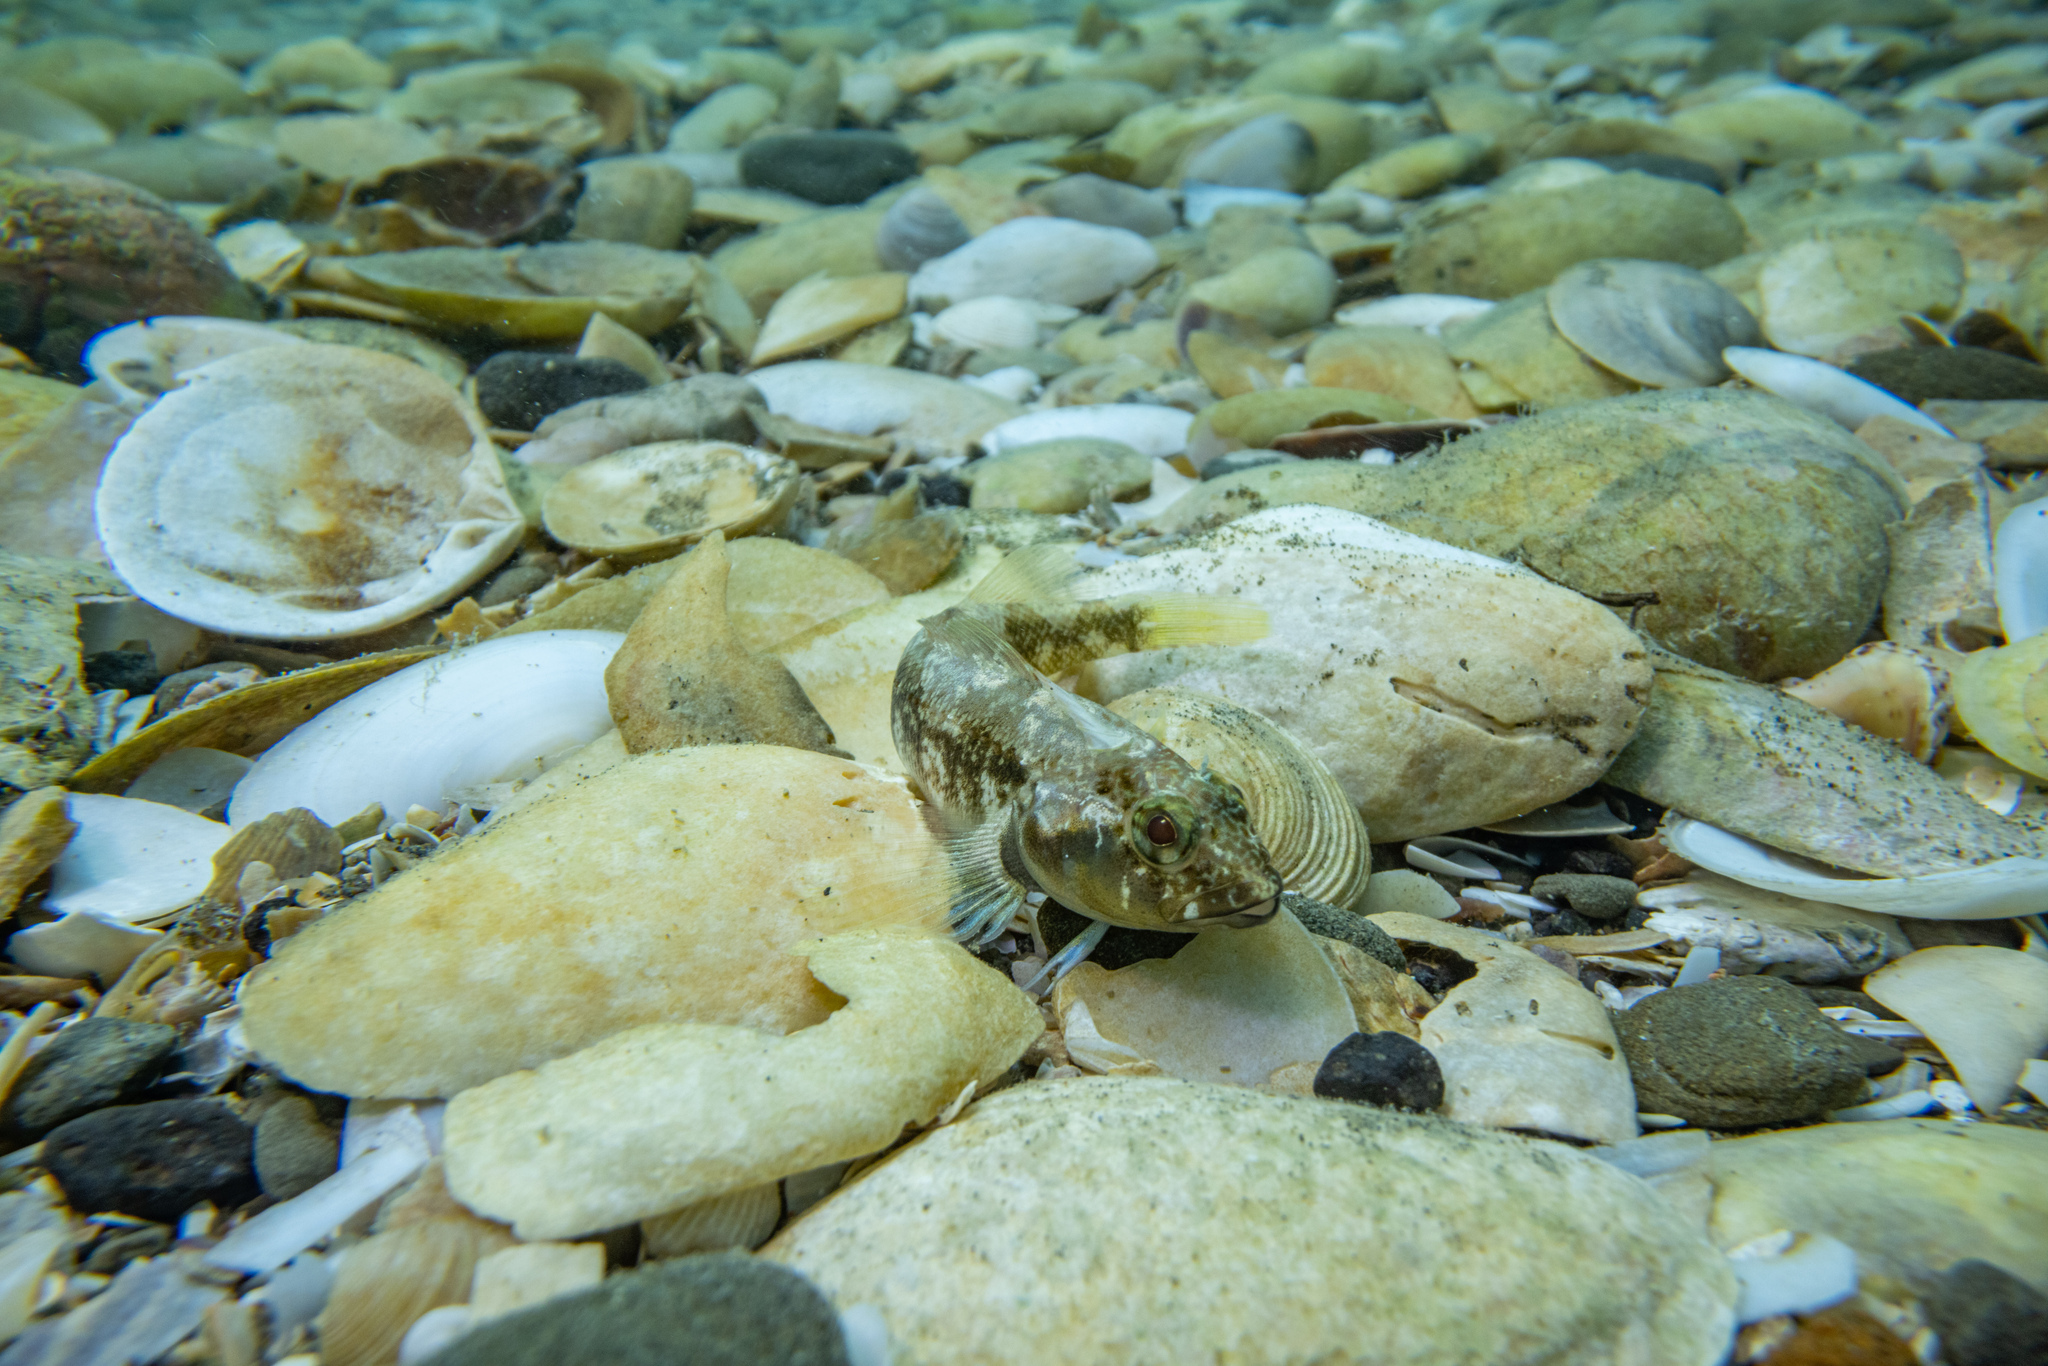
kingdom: Animalia
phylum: Chordata
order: Perciformes
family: Tripterygiidae
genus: Forsterygion
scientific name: Forsterygion capito
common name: Spotted robust triplefin
